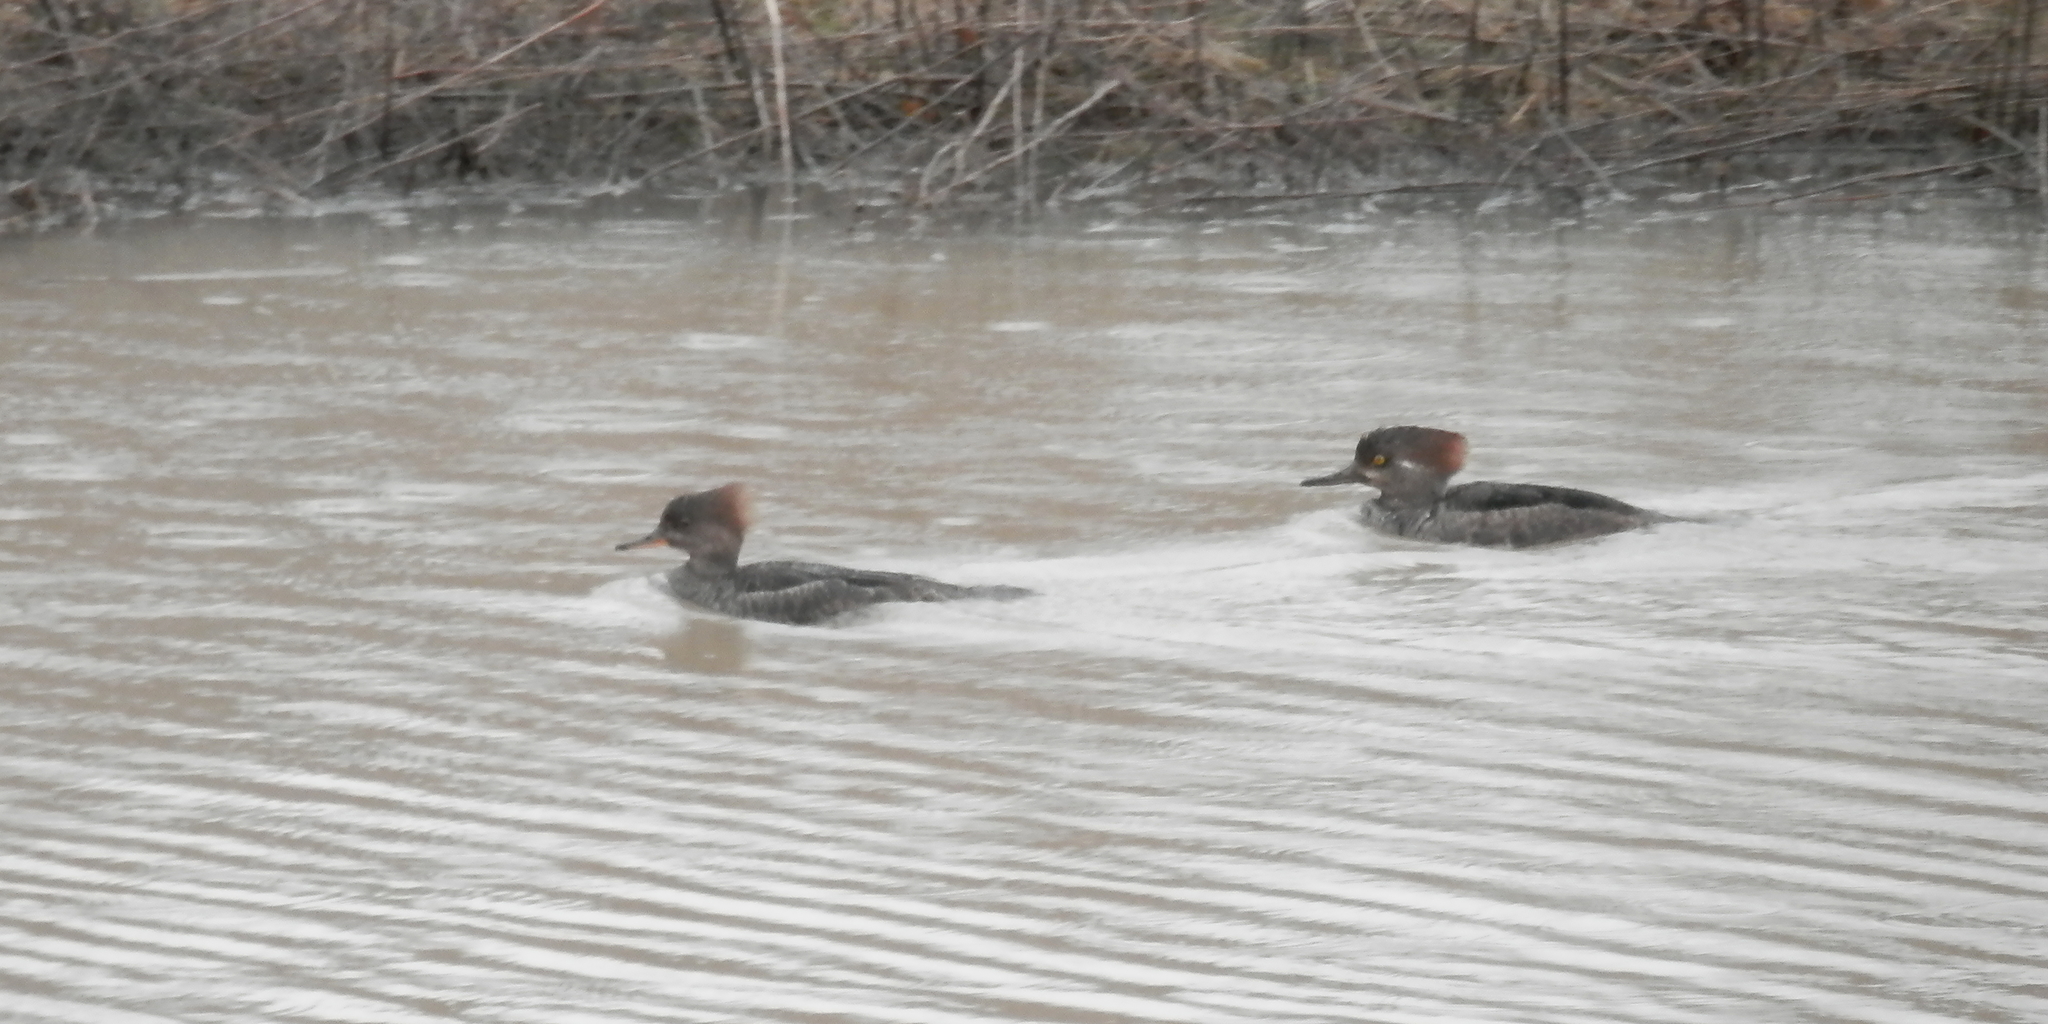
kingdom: Animalia
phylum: Chordata
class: Aves
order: Anseriformes
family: Anatidae
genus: Lophodytes
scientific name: Lophodytes cucullatus
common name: Hooded merganser
